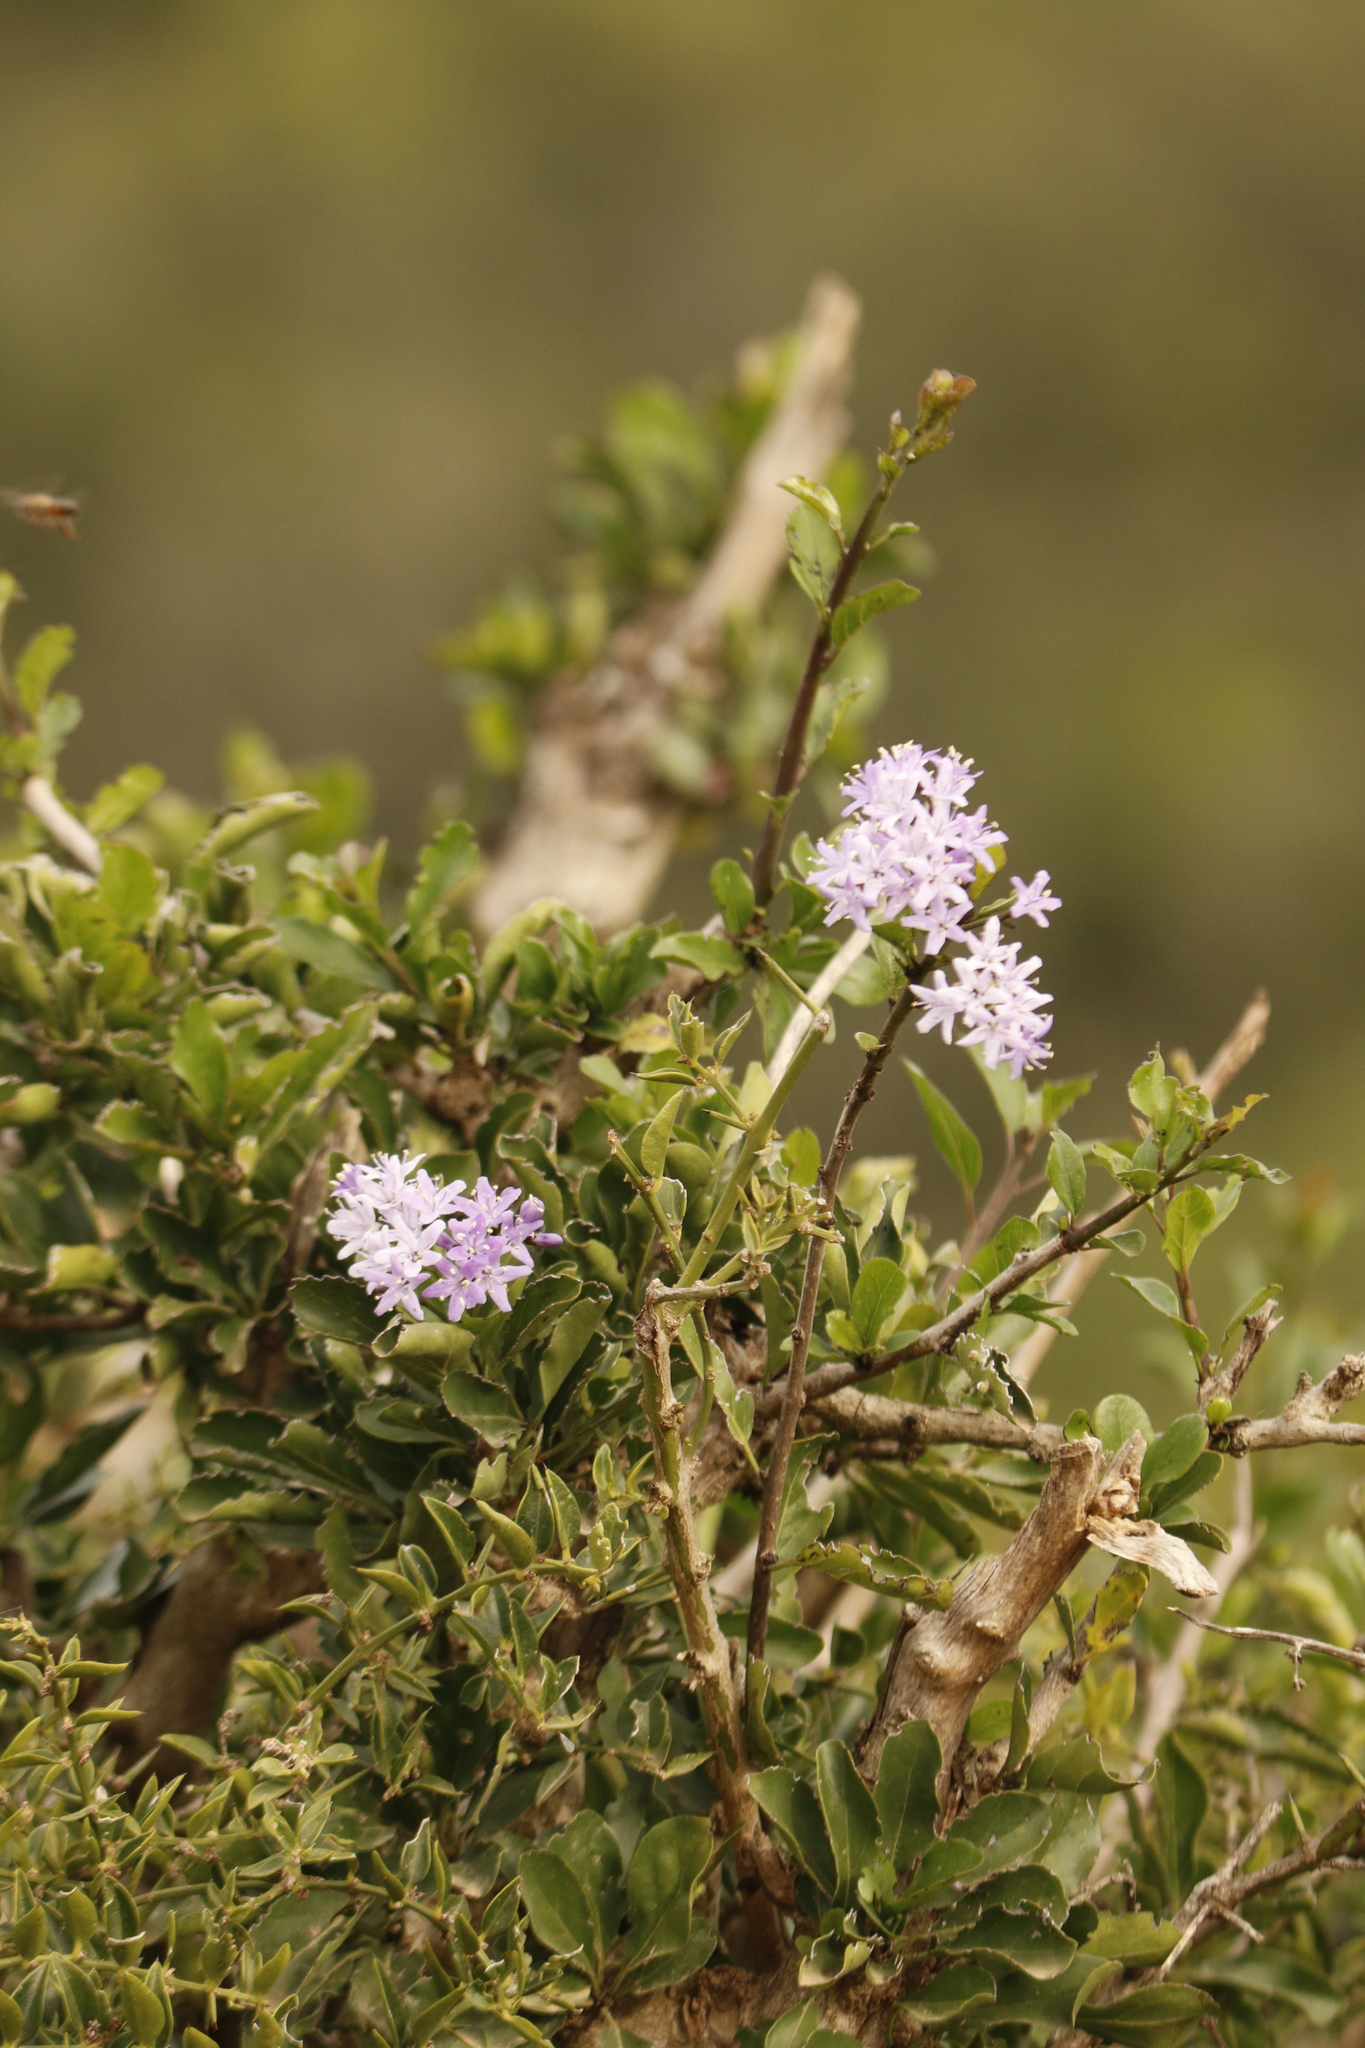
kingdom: Plantae
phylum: Tracheophyta
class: Magnoliopsida
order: Boraginales
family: Ehretiaceae
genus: Ehretia
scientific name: Ehretia rigida
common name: Cape lilac
